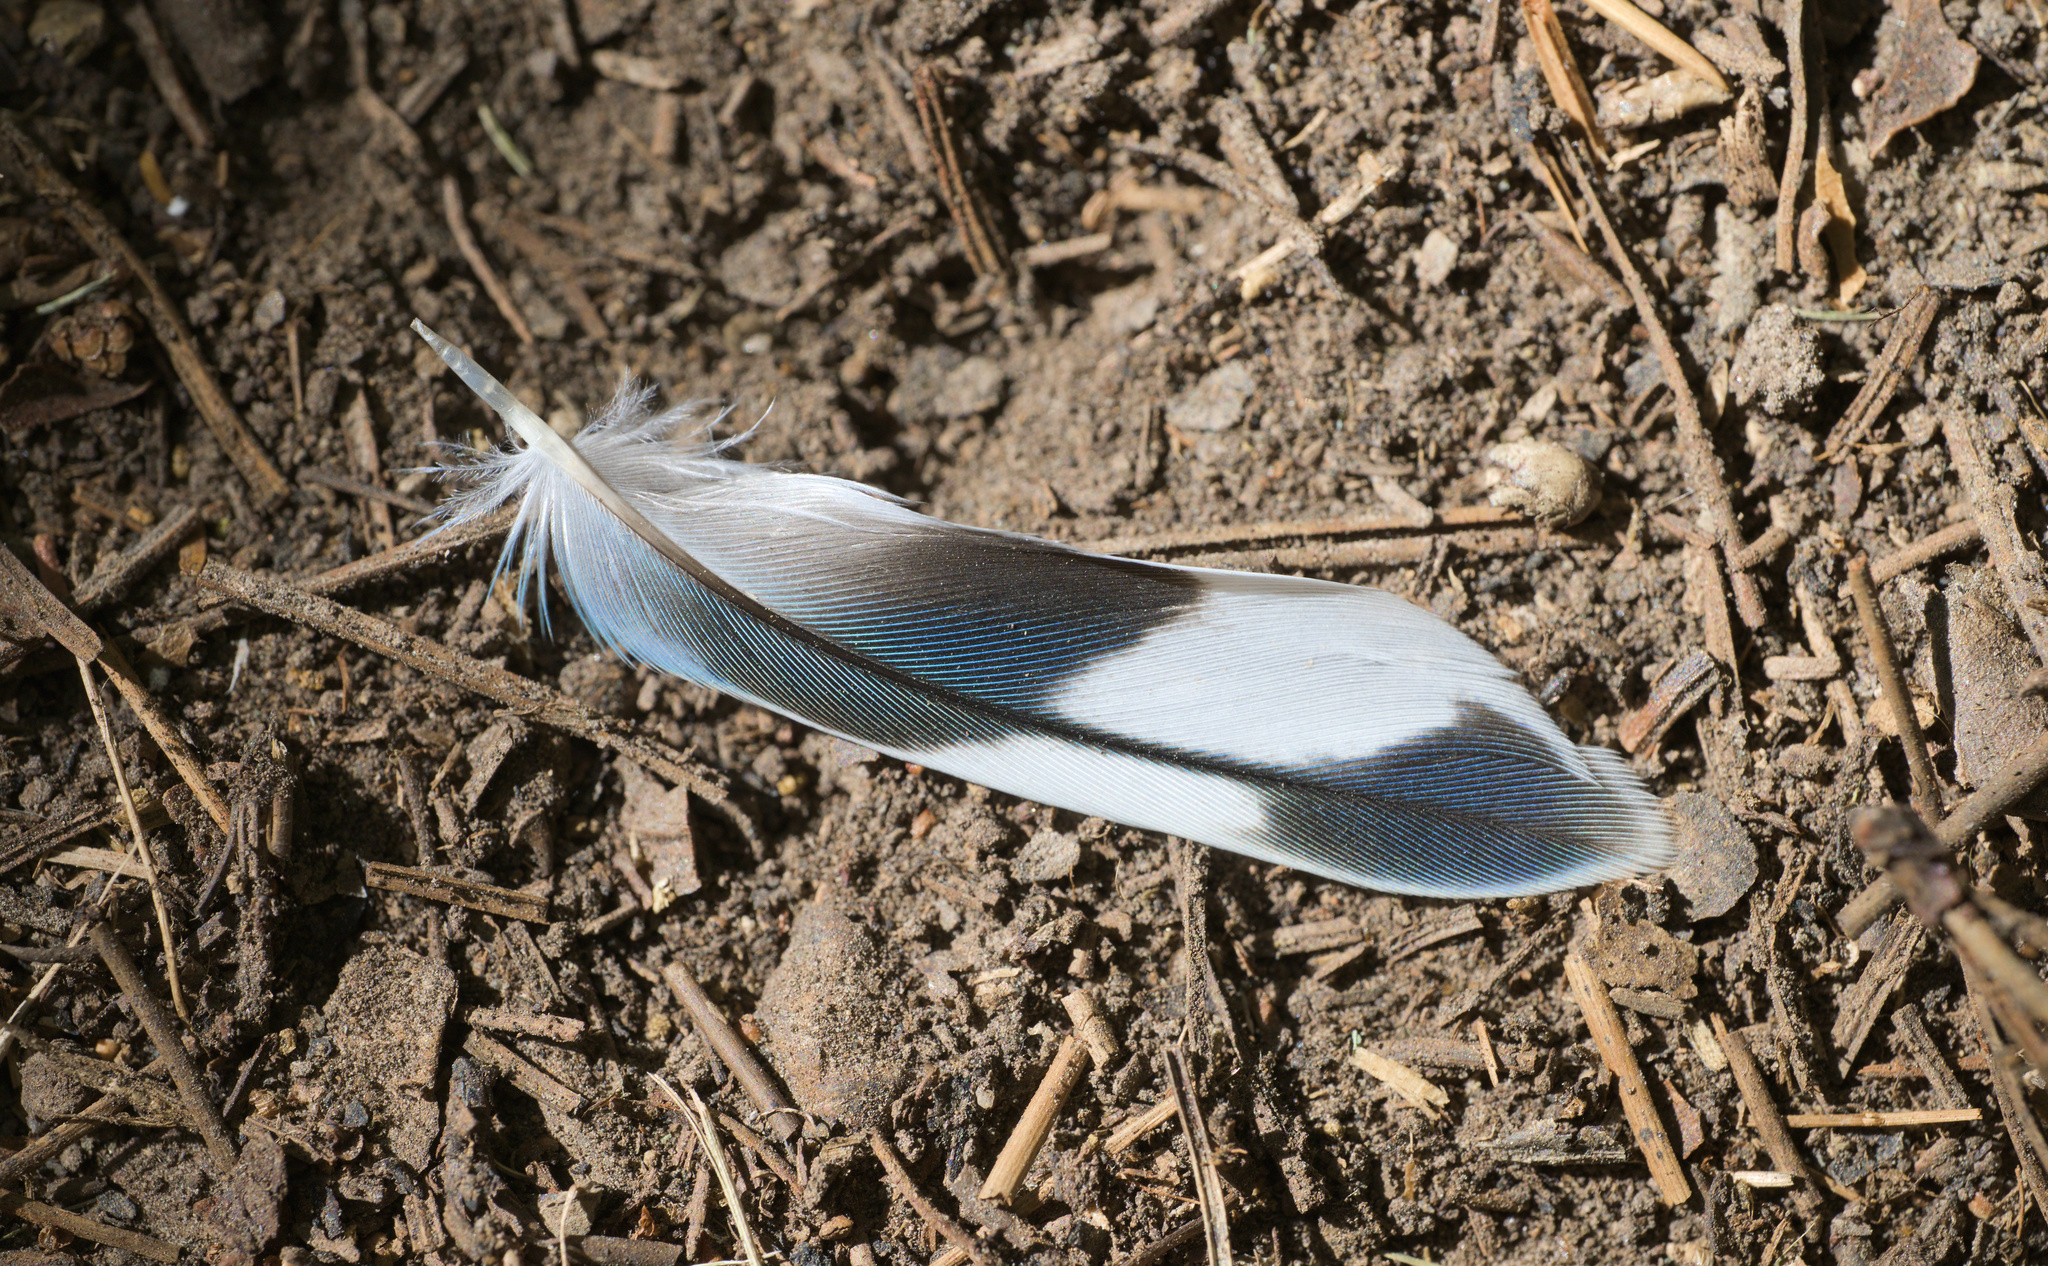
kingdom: Animalia
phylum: Chordata
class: Aves
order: Psittaciformes
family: Psittacidae
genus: Melopsittacus
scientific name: Melopsittacus undulatus
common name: Budgerigar
